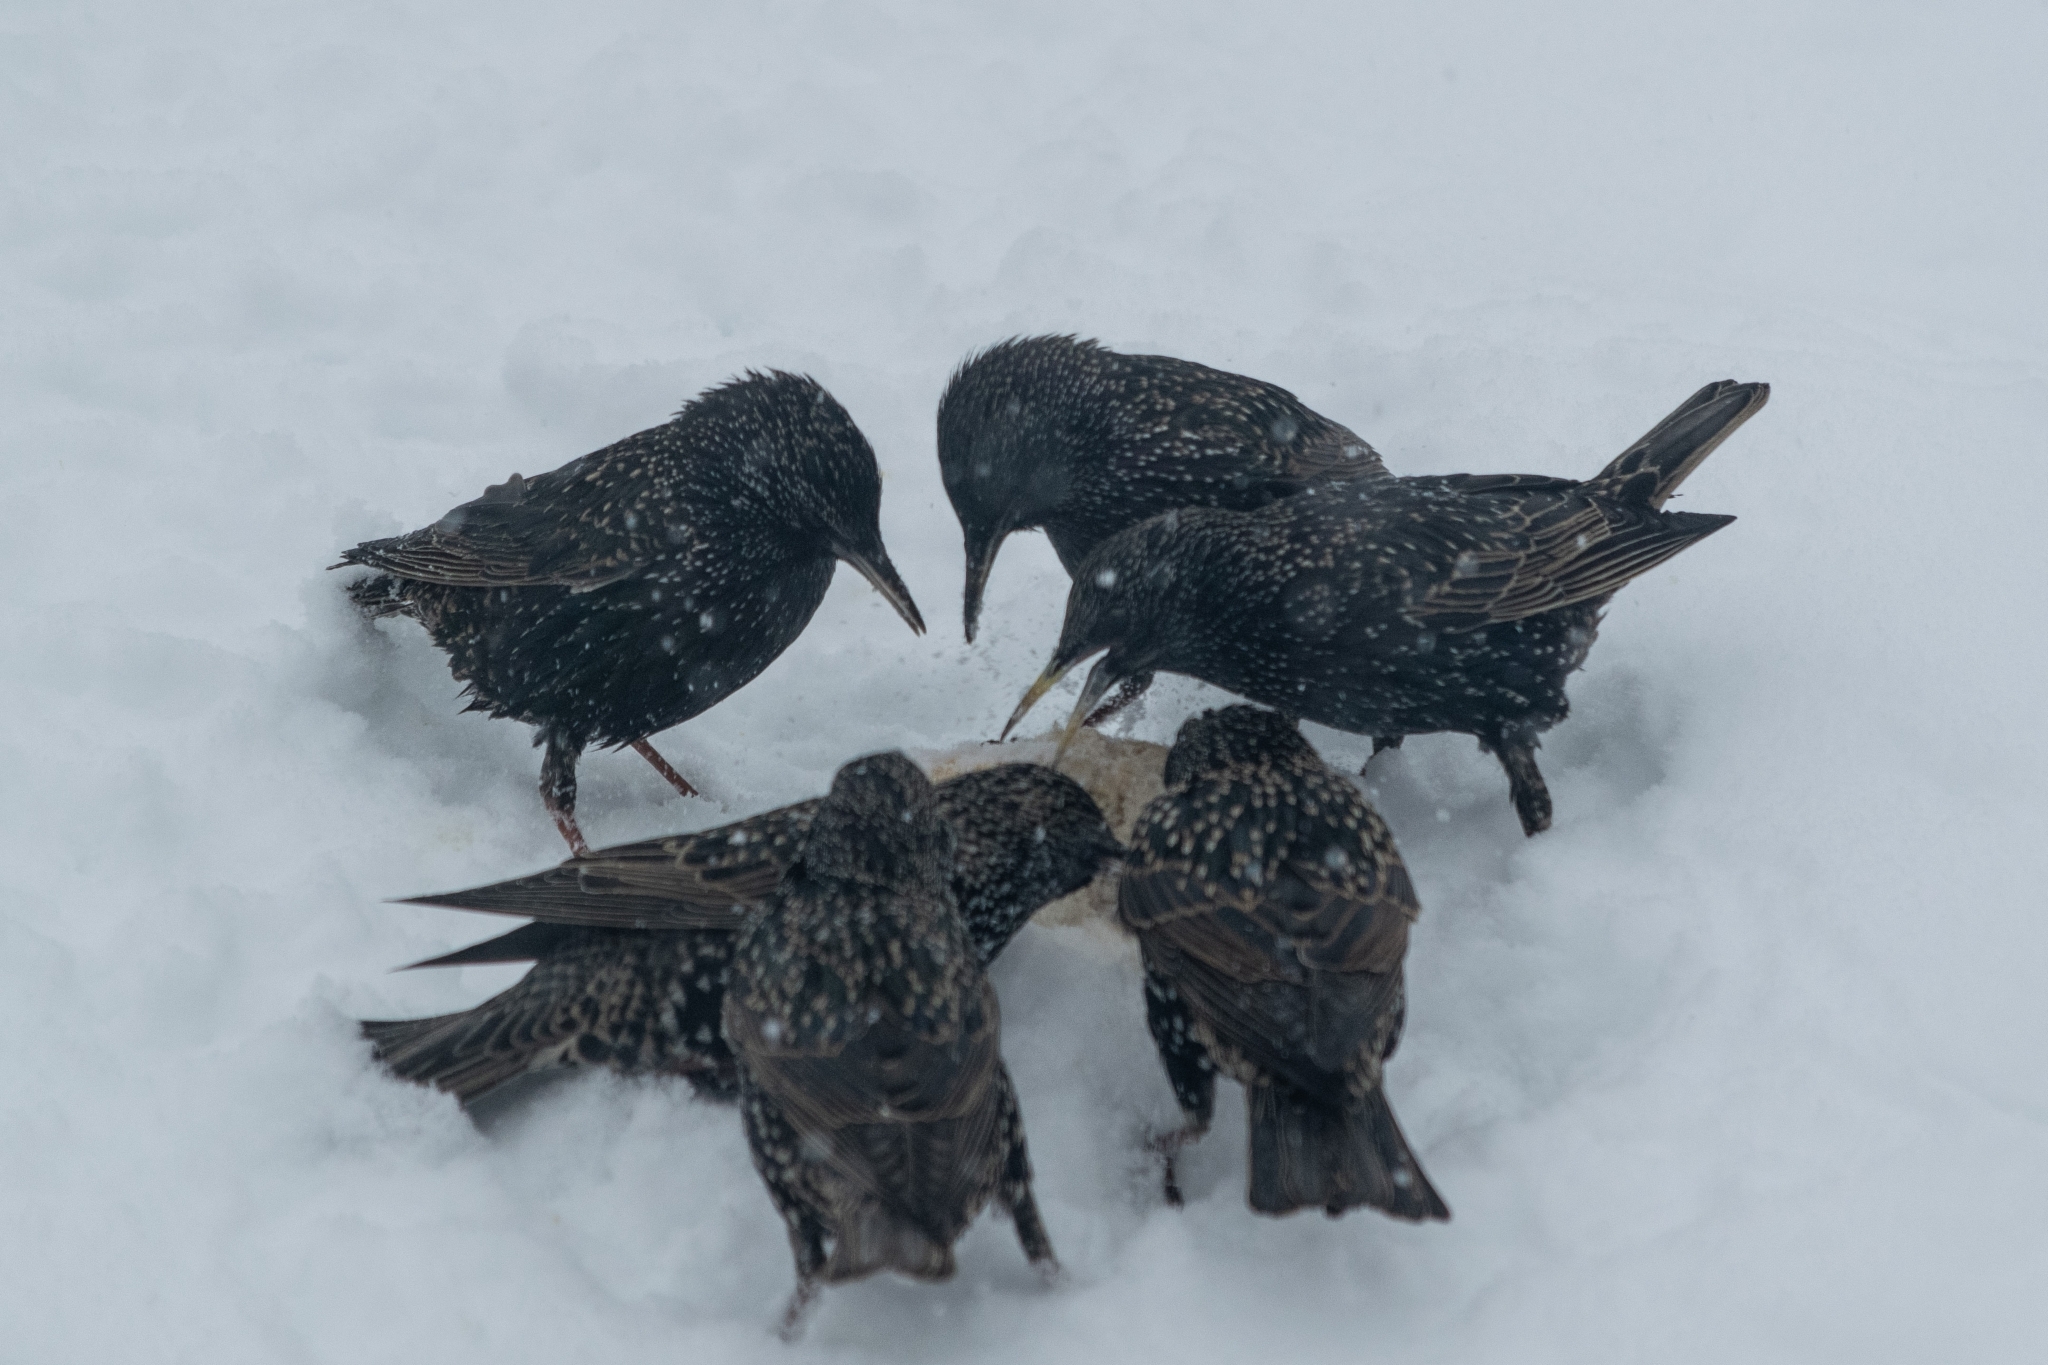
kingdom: Animalia
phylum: Chordata
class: Aves
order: Passeriformes
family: Sturnidae
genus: Sturnus
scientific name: Sturnus vulgaris
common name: Common starling
